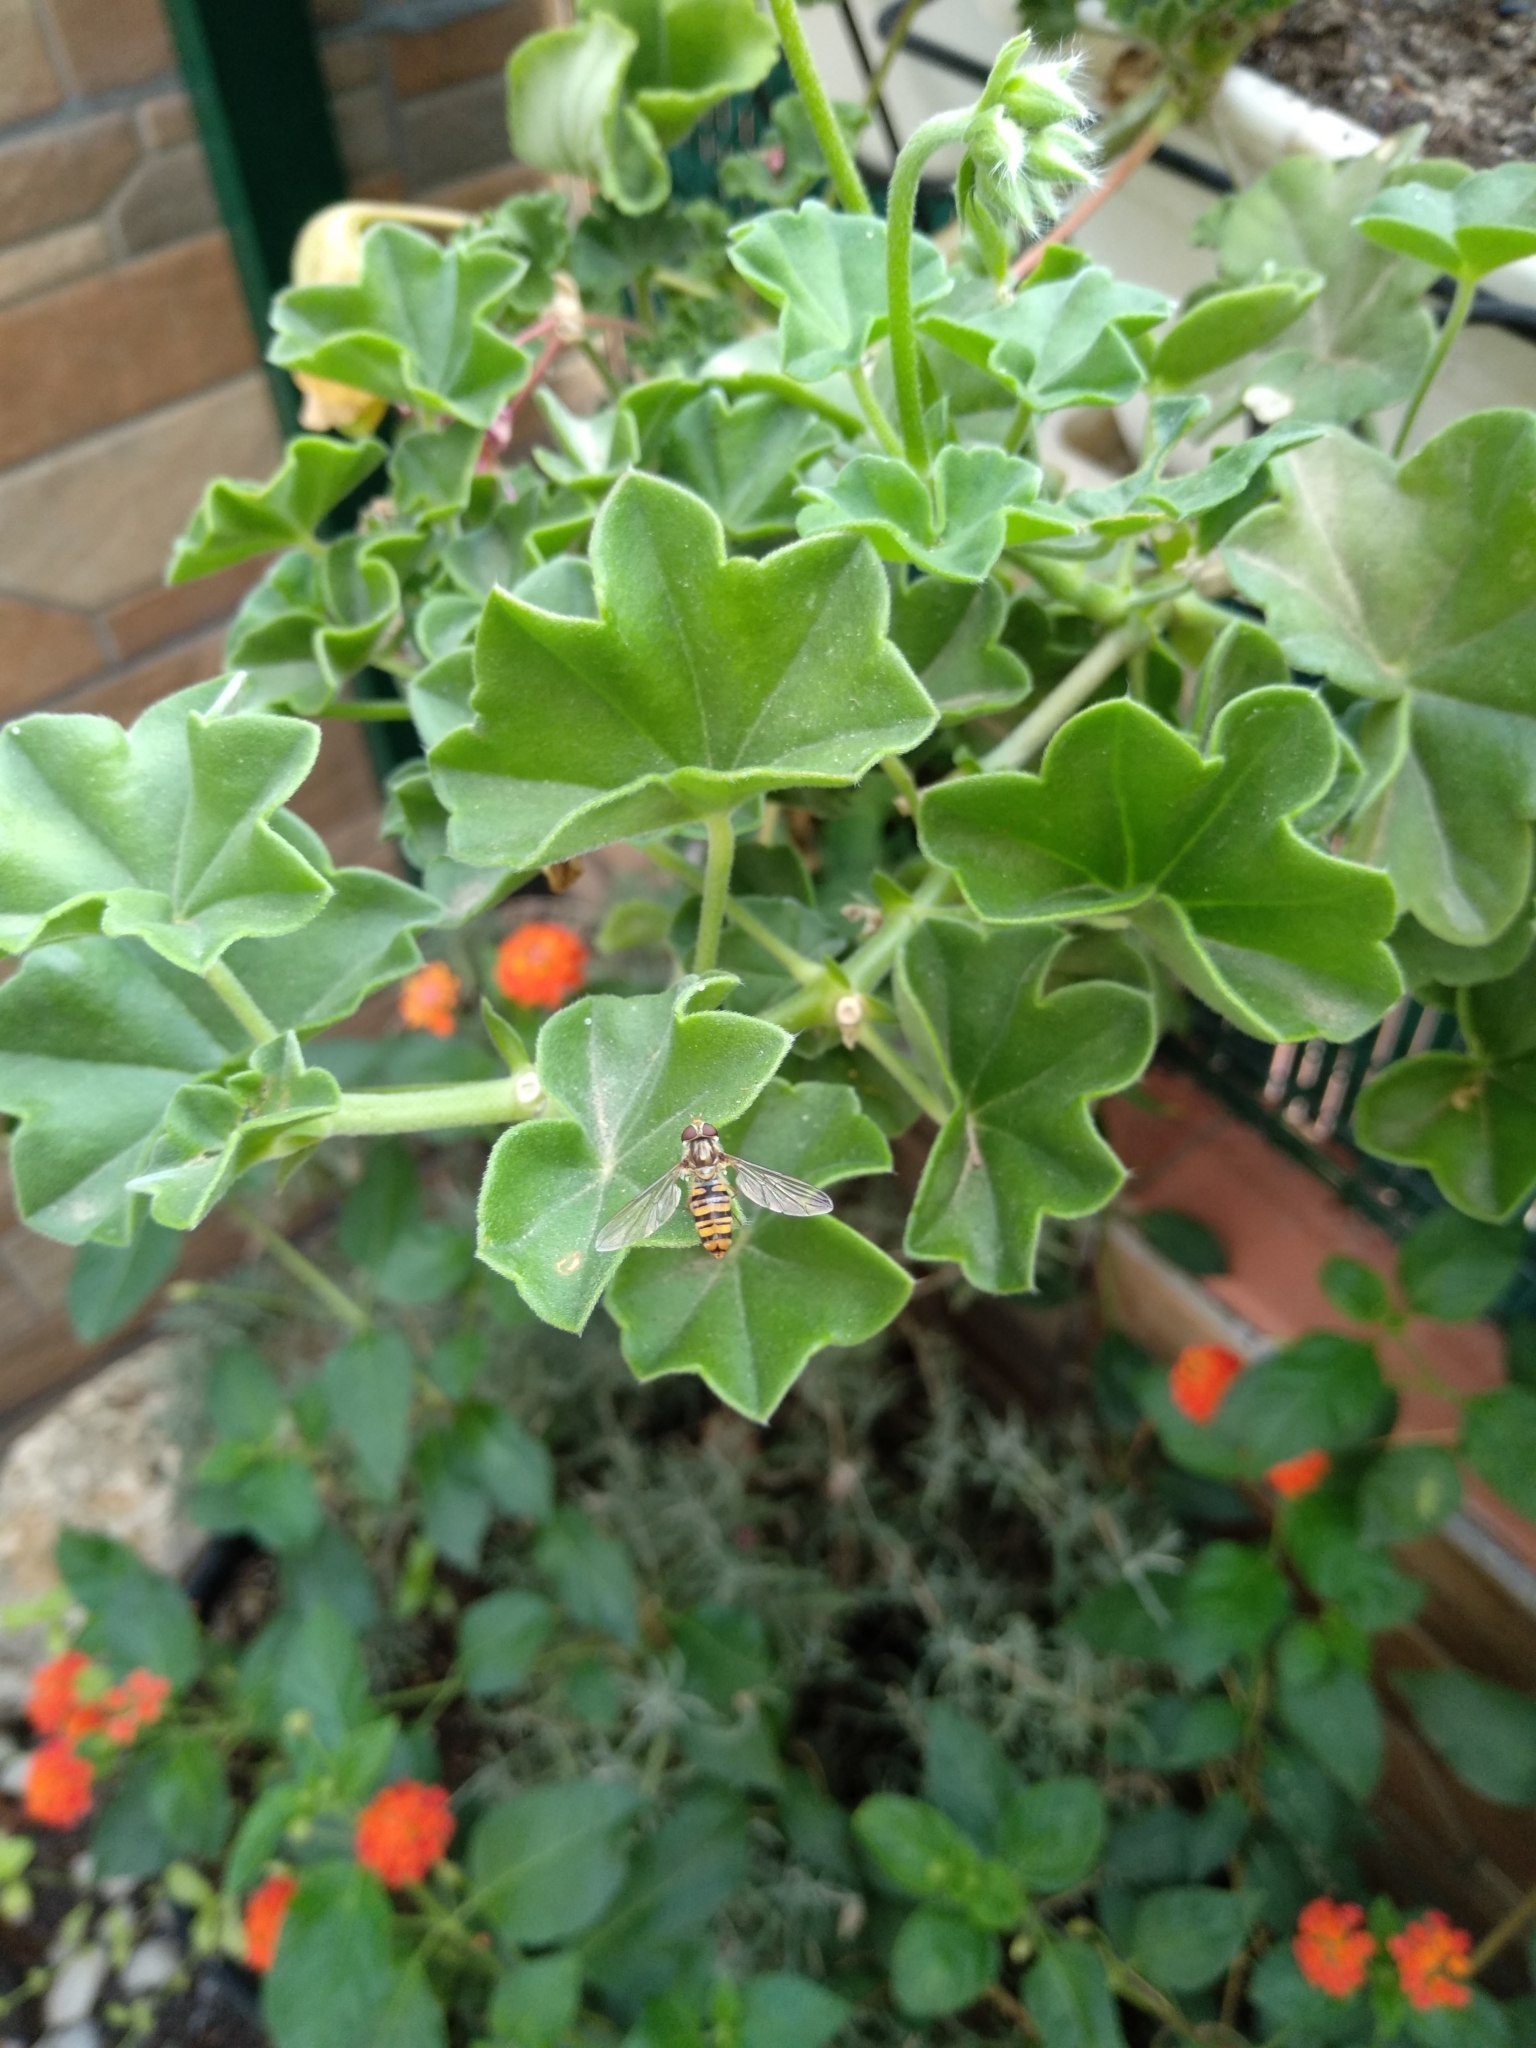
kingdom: Animalia
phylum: Arthropoda
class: Insecta
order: Diptera
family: Syrphidae
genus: Episyrphus
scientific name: Episyrphus balteatus
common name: Marmalade hoverfly
